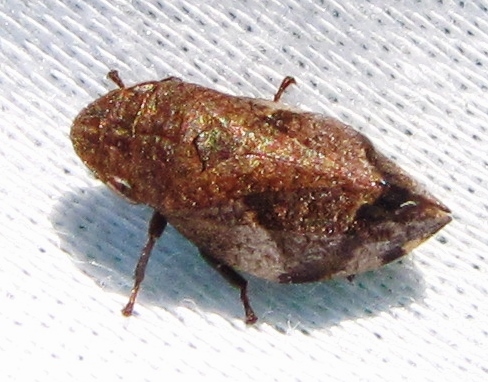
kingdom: Animalia
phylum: Arthropoda
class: Insecta
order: Hemiptera
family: Aphrophoridae
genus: Lepyronia
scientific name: Lepyronia quadrangularis
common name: Diamond-backed spittlebug
